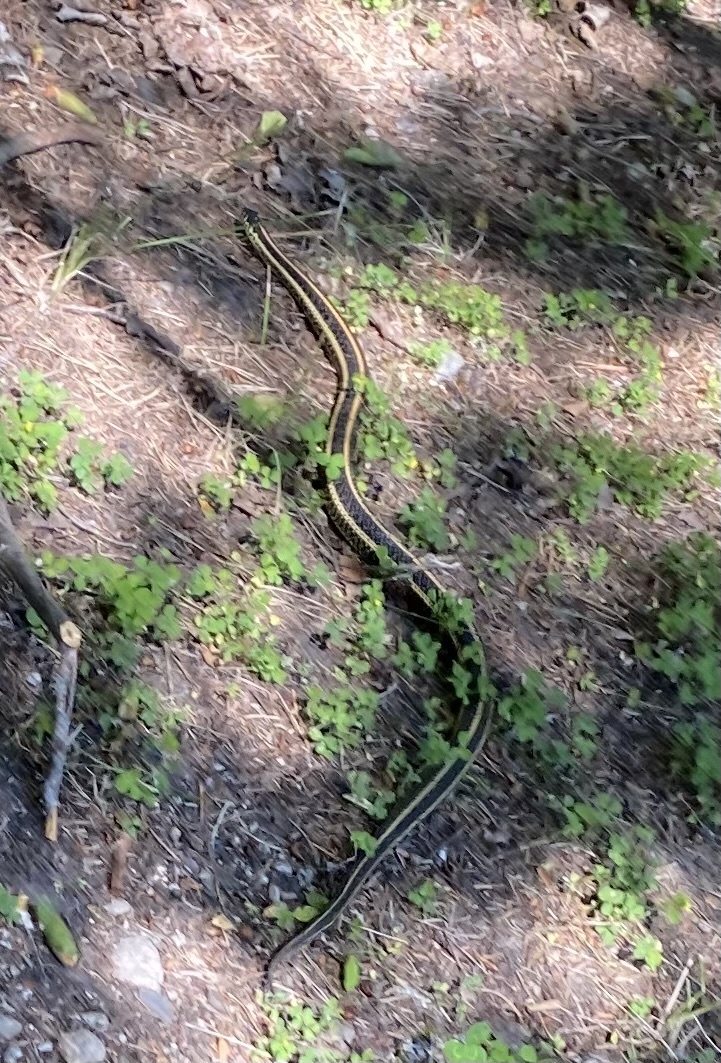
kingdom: Animalia
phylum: Chordata
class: Squamata
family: Colubridae
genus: Thamnophis
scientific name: Thamnophis radix
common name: Plains garter snake
